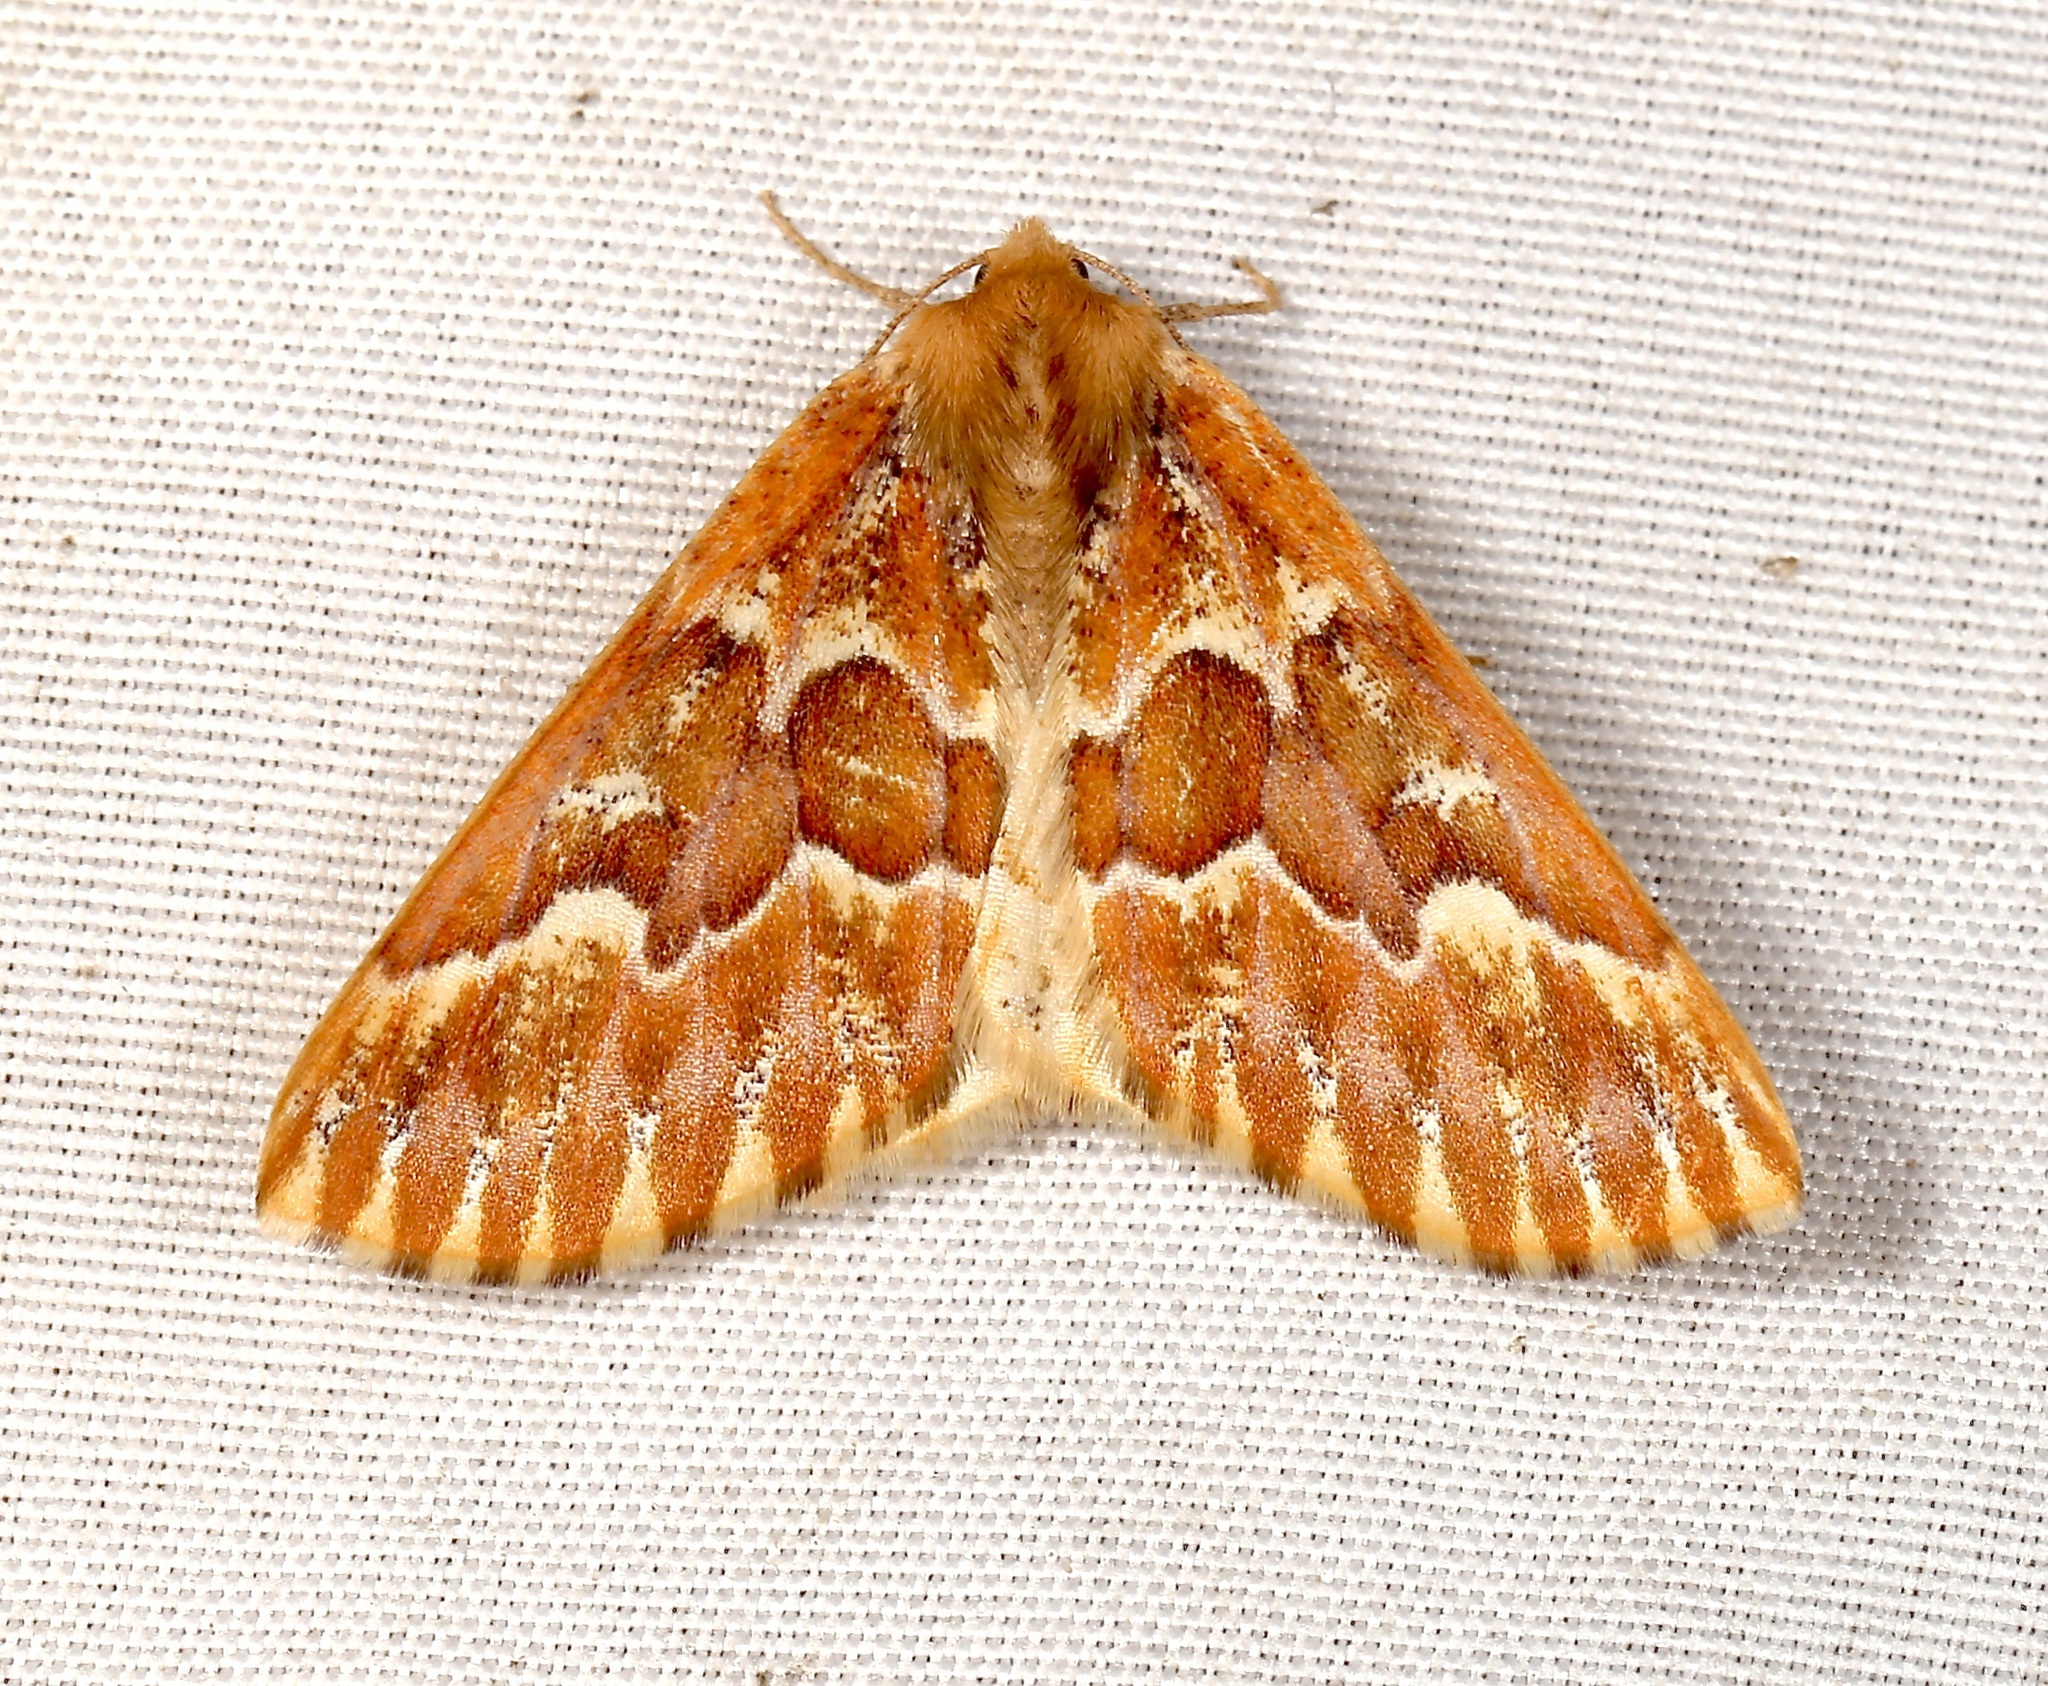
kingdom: Animalia
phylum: Arthropoda
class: Insecta
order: Lepidoptera
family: Geometridae
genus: Caripeta
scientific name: Caripeta aequaliaria
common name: Red girdle moth
